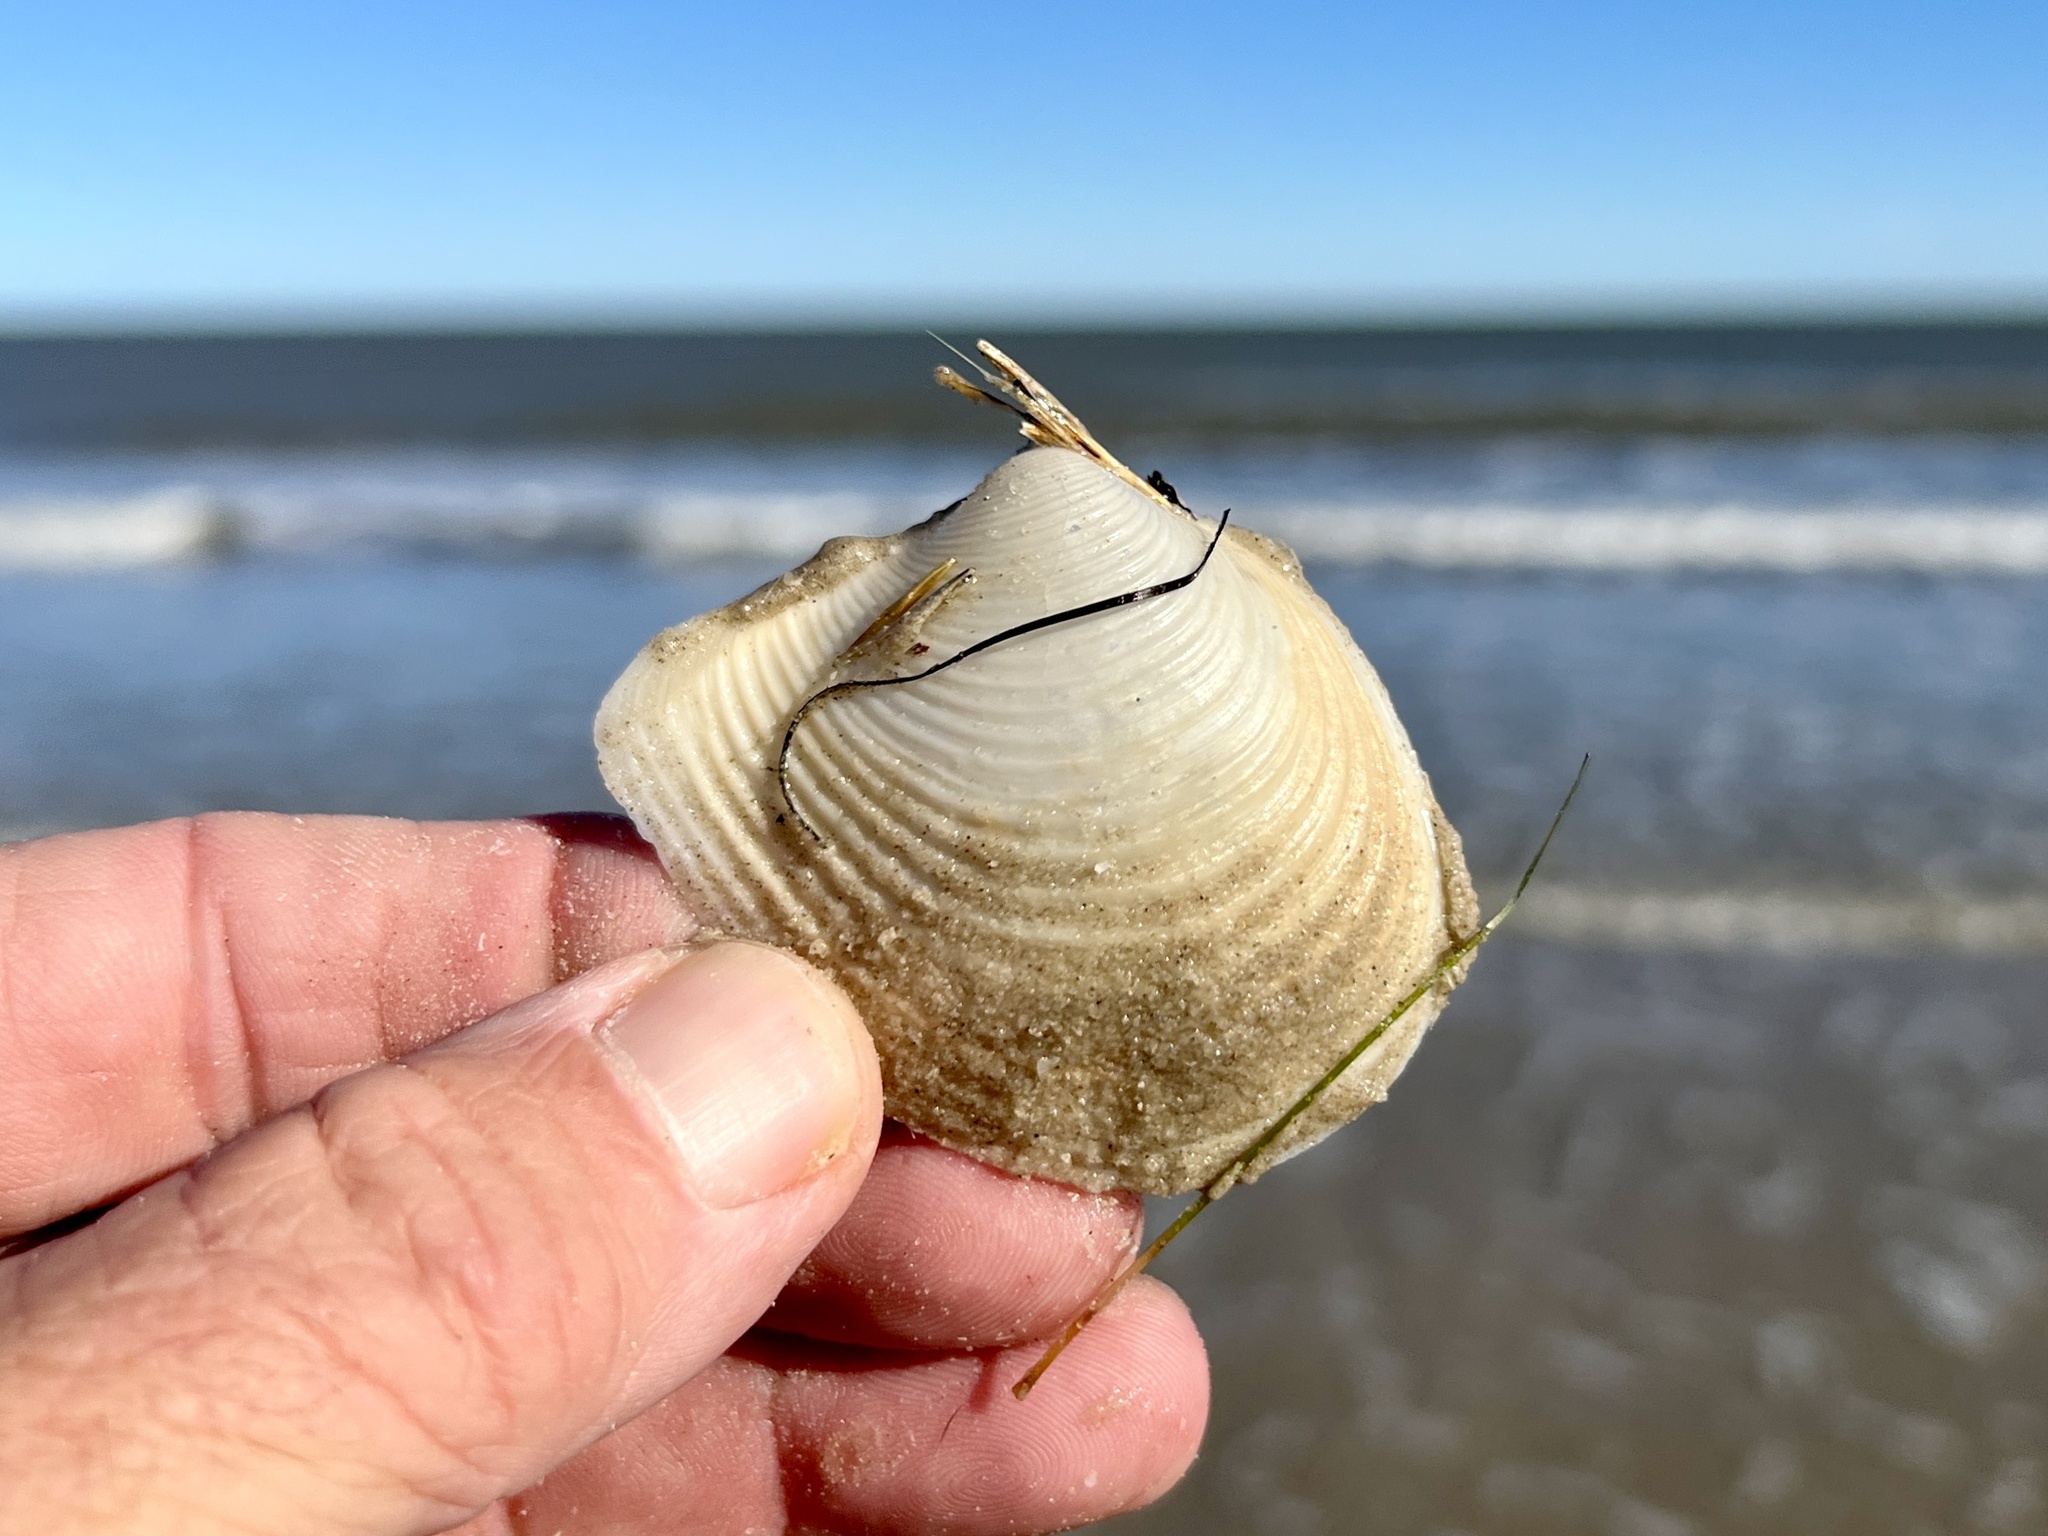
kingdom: Animalia
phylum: Mollusca
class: Bivalvia
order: Venerida
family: Anatinellidae
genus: Raeta
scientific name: Raeta plicatella
